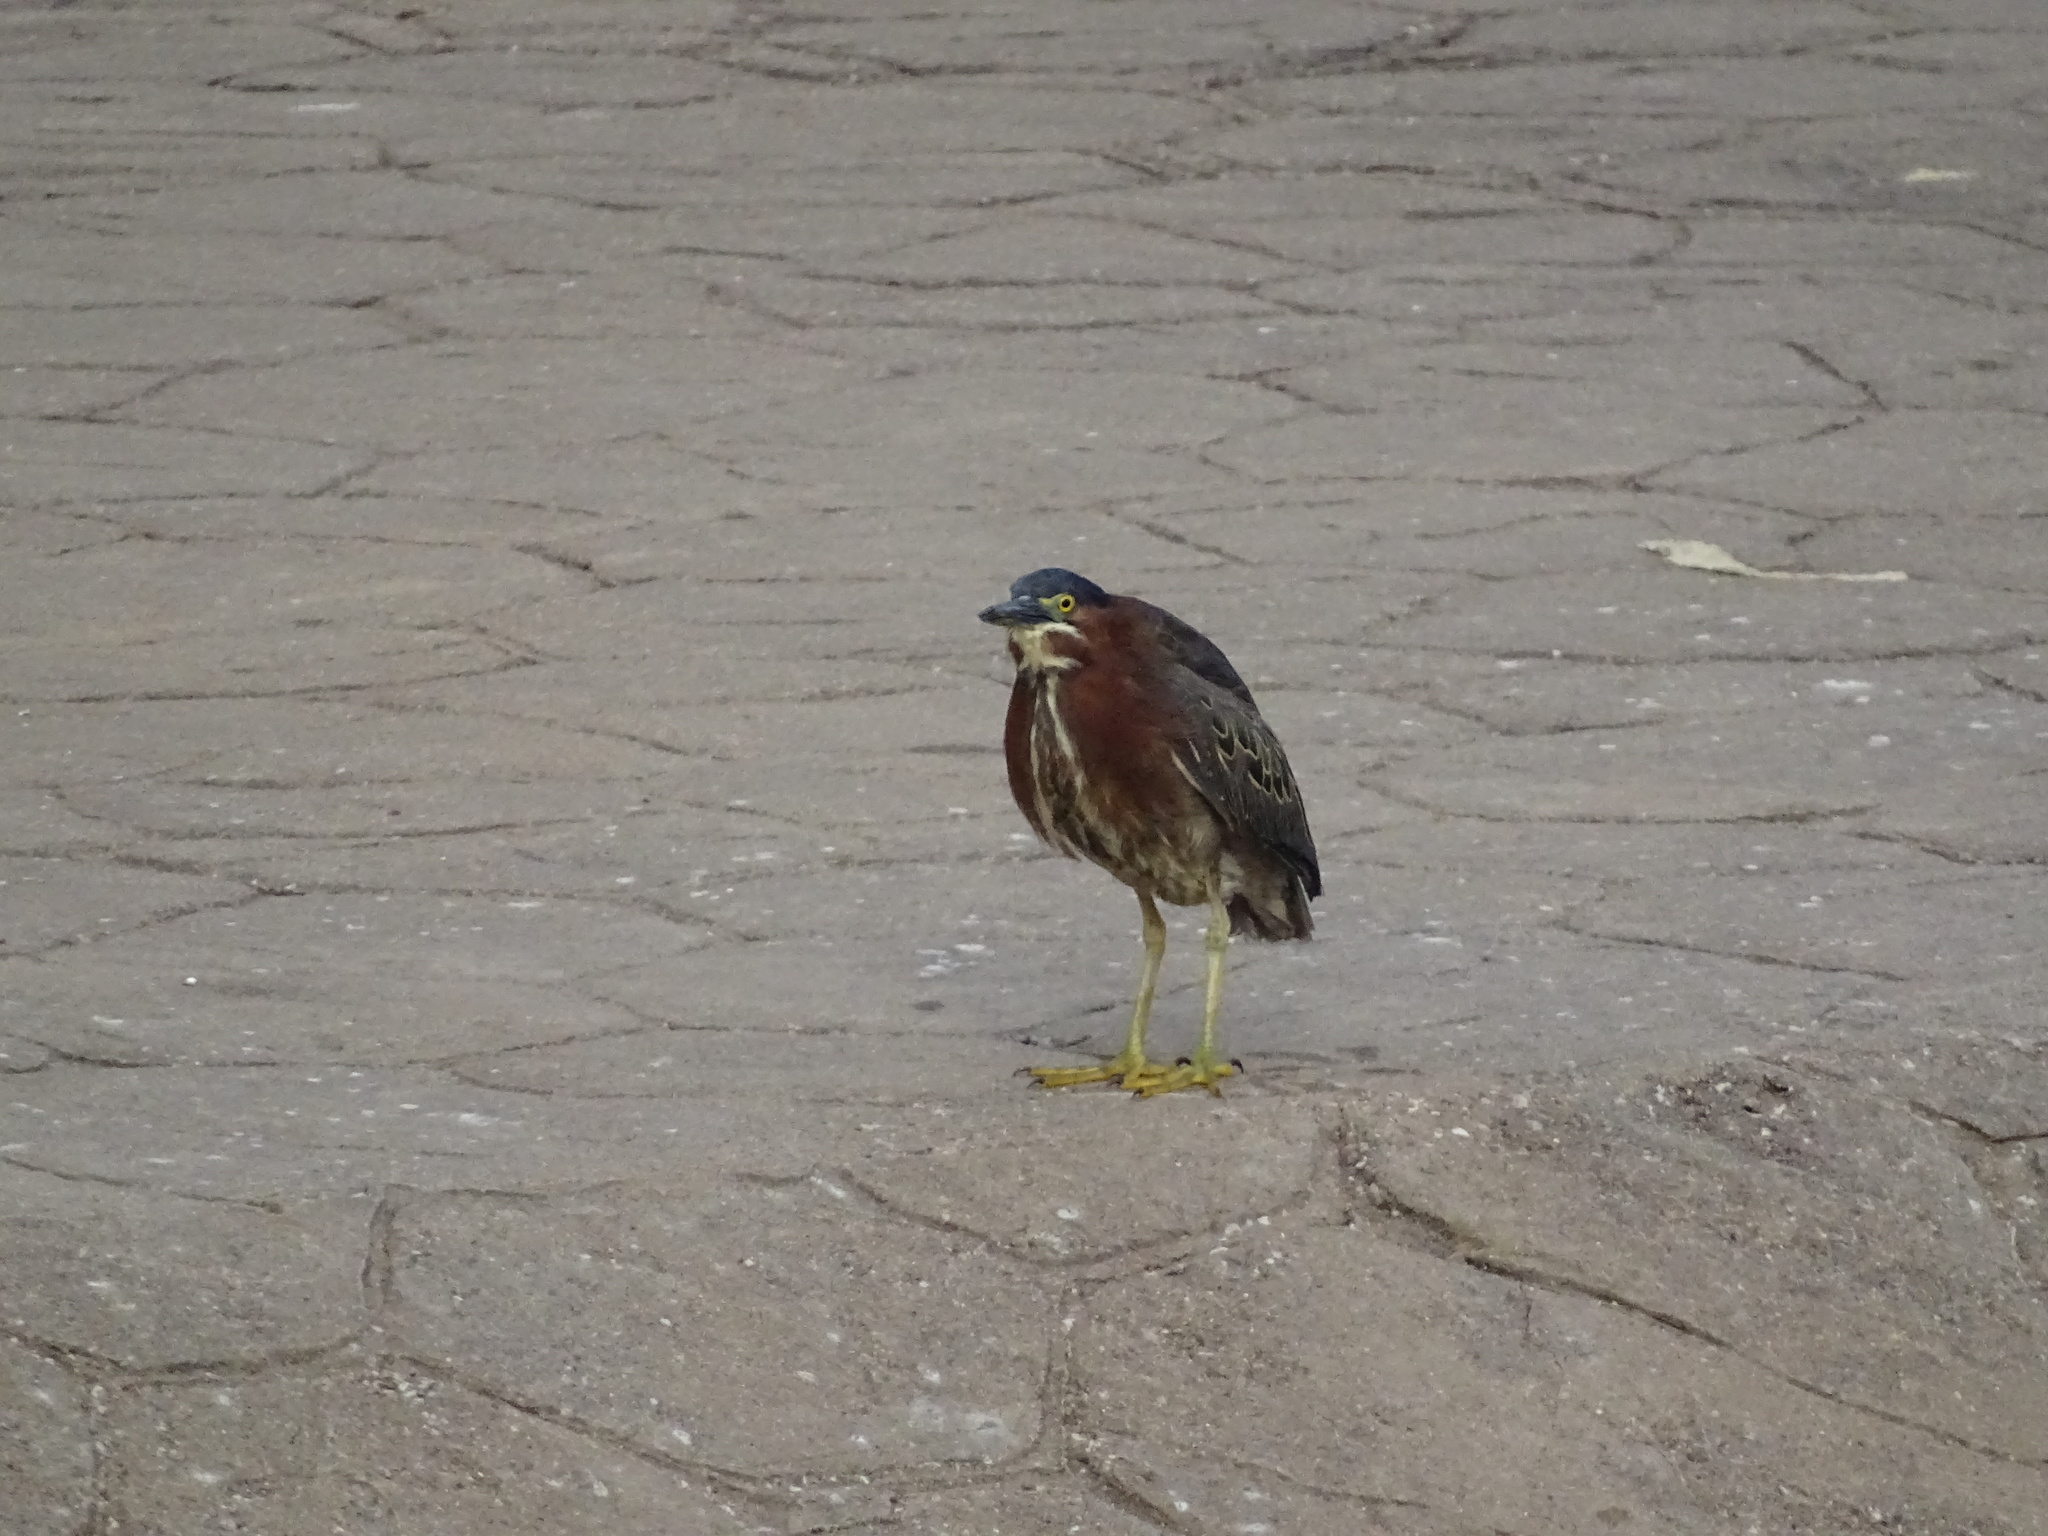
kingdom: Animalia
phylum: Chordata
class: Aves
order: Pelecaniformes
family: Ardeidae
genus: Butorides
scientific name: Butorides virescens
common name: Green heron
